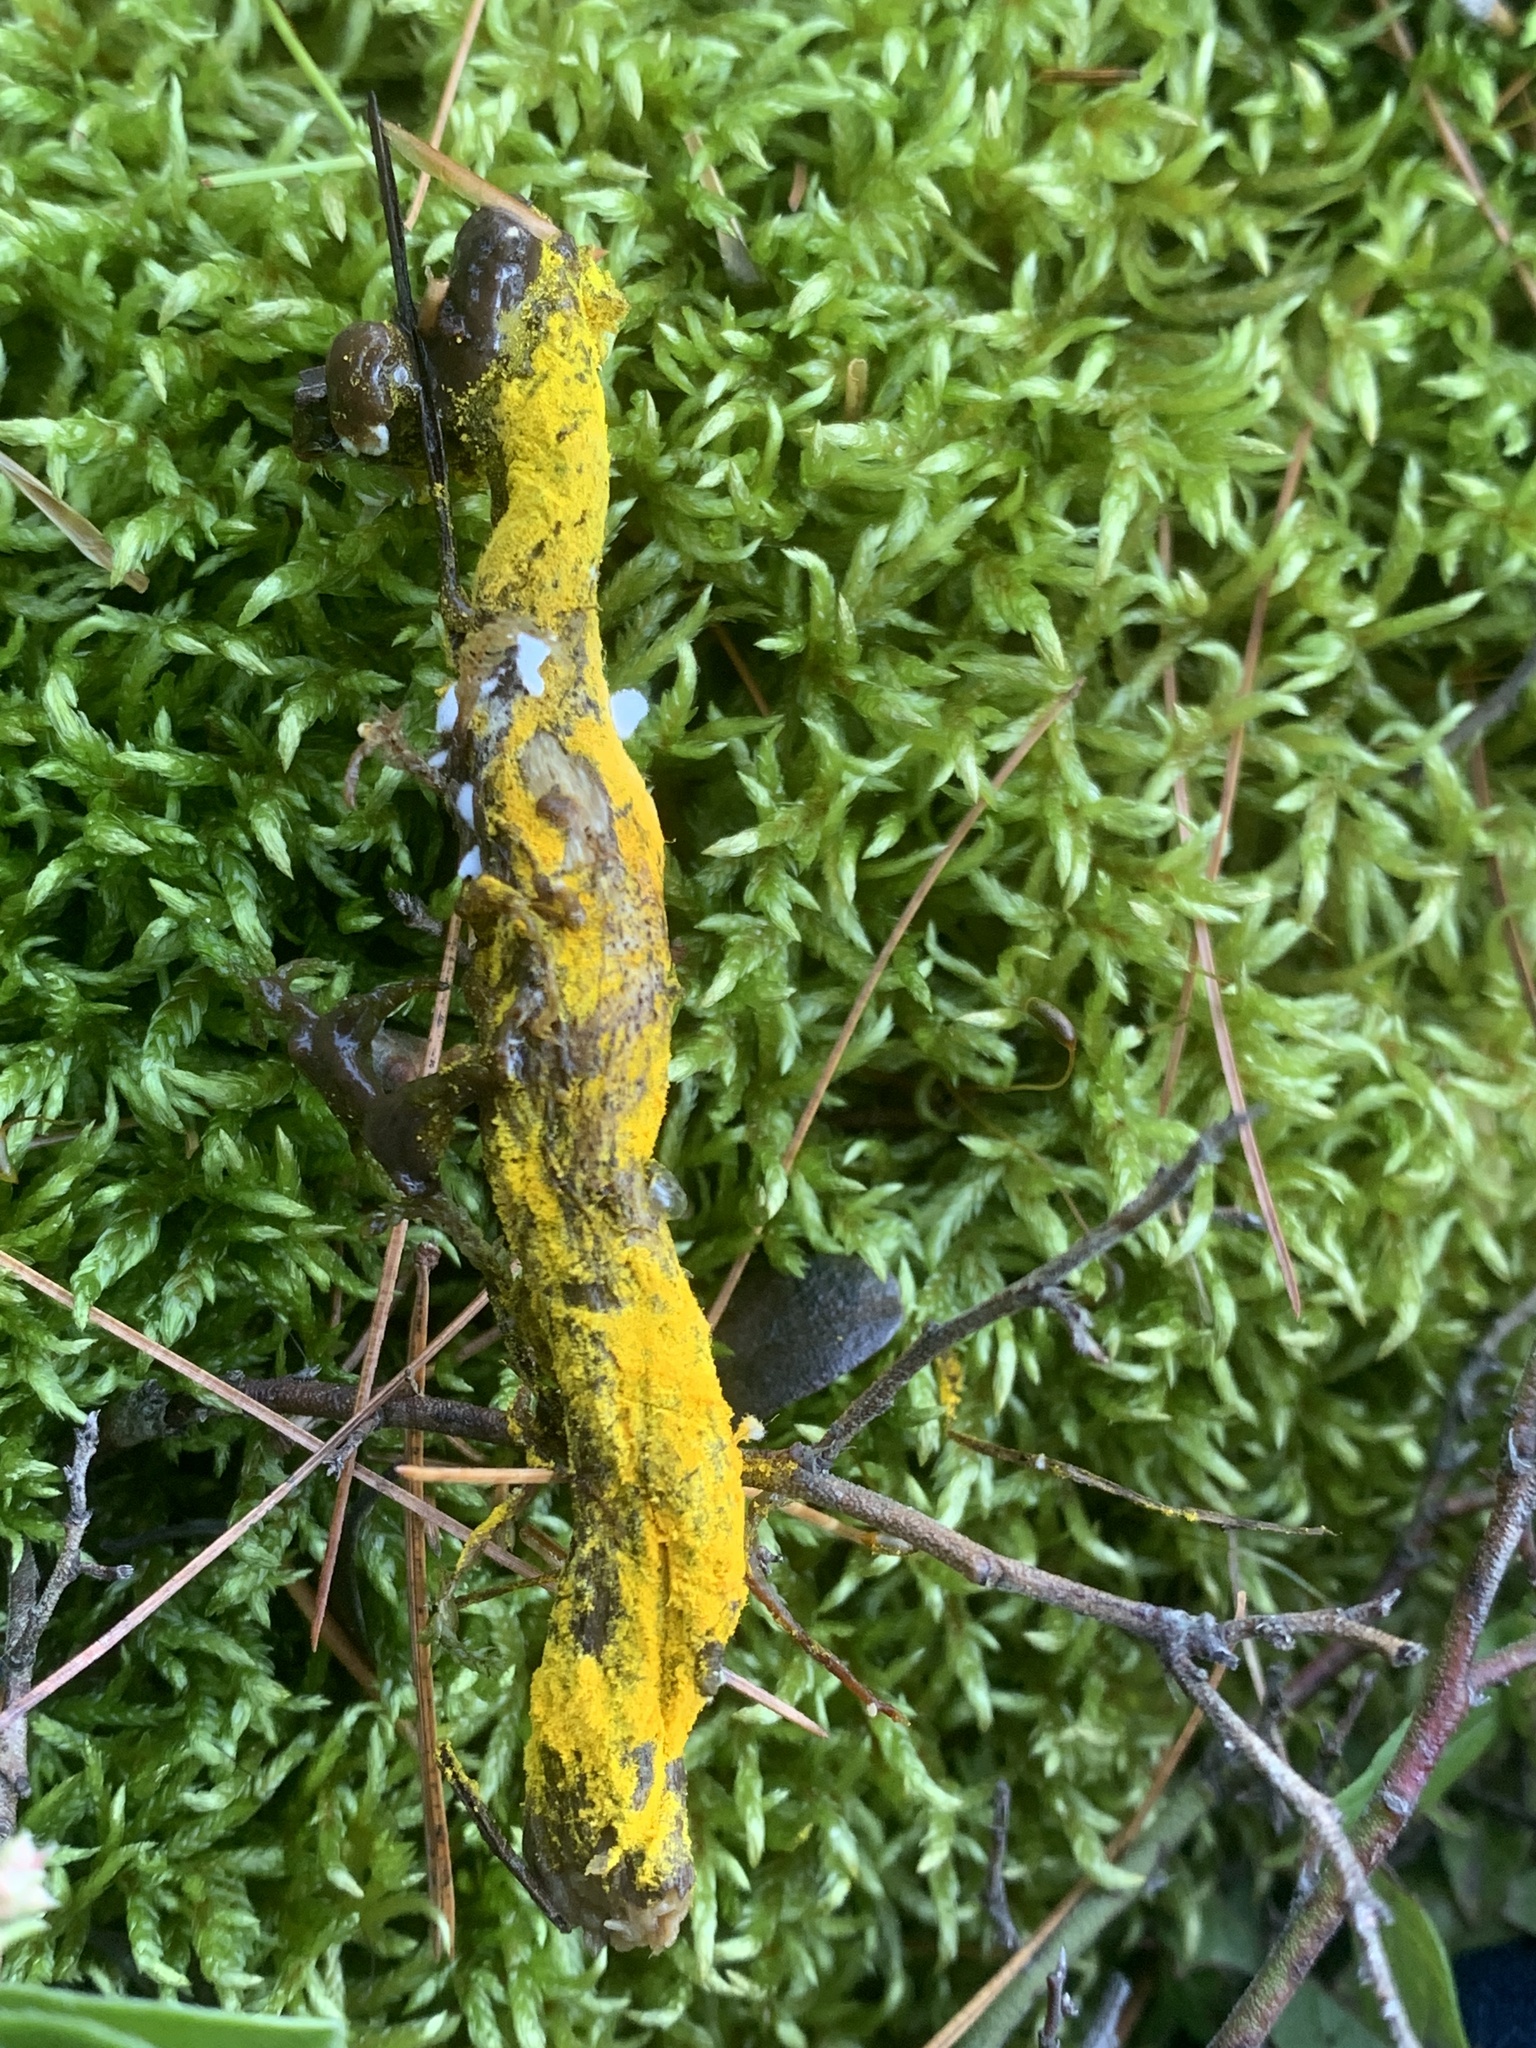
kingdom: Fungi
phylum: Ascomycota
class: Sordariomycetes
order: Hypocreales
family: Hypocreaceae
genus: Hypomyces
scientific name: Hypomyces chrysospermus
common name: Bolete mould
